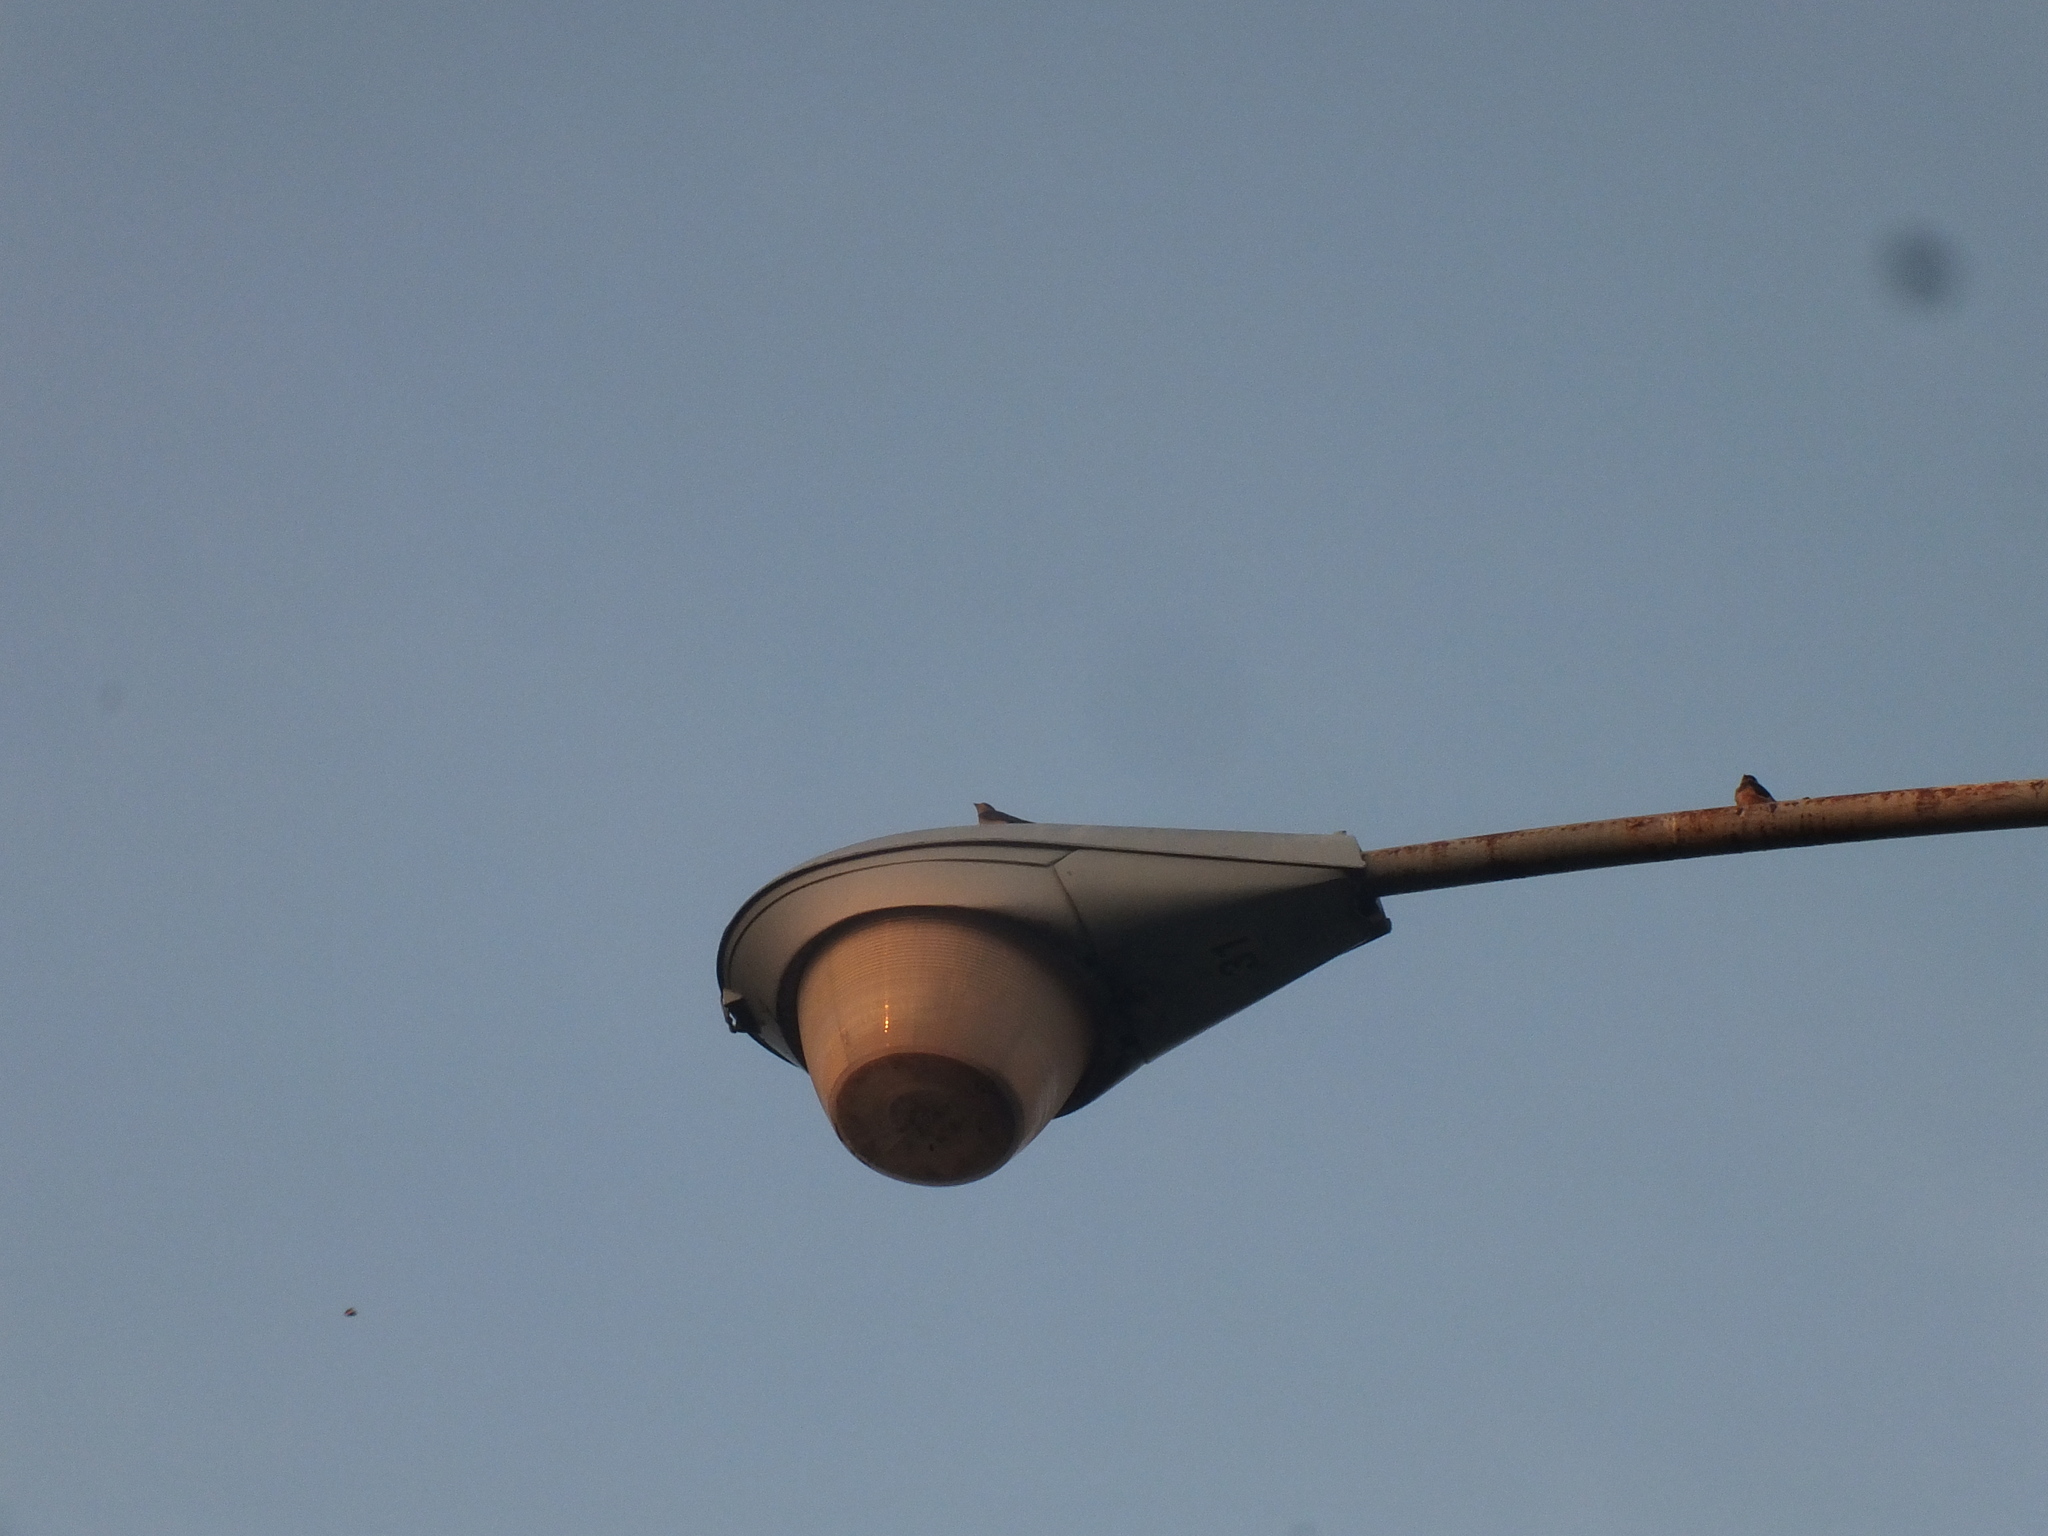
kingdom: Animalia
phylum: Chordata
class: Aves
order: Passeriformes
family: Hirundinidae
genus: Hirundo
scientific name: Hirundo rustica
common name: Barn swallow
